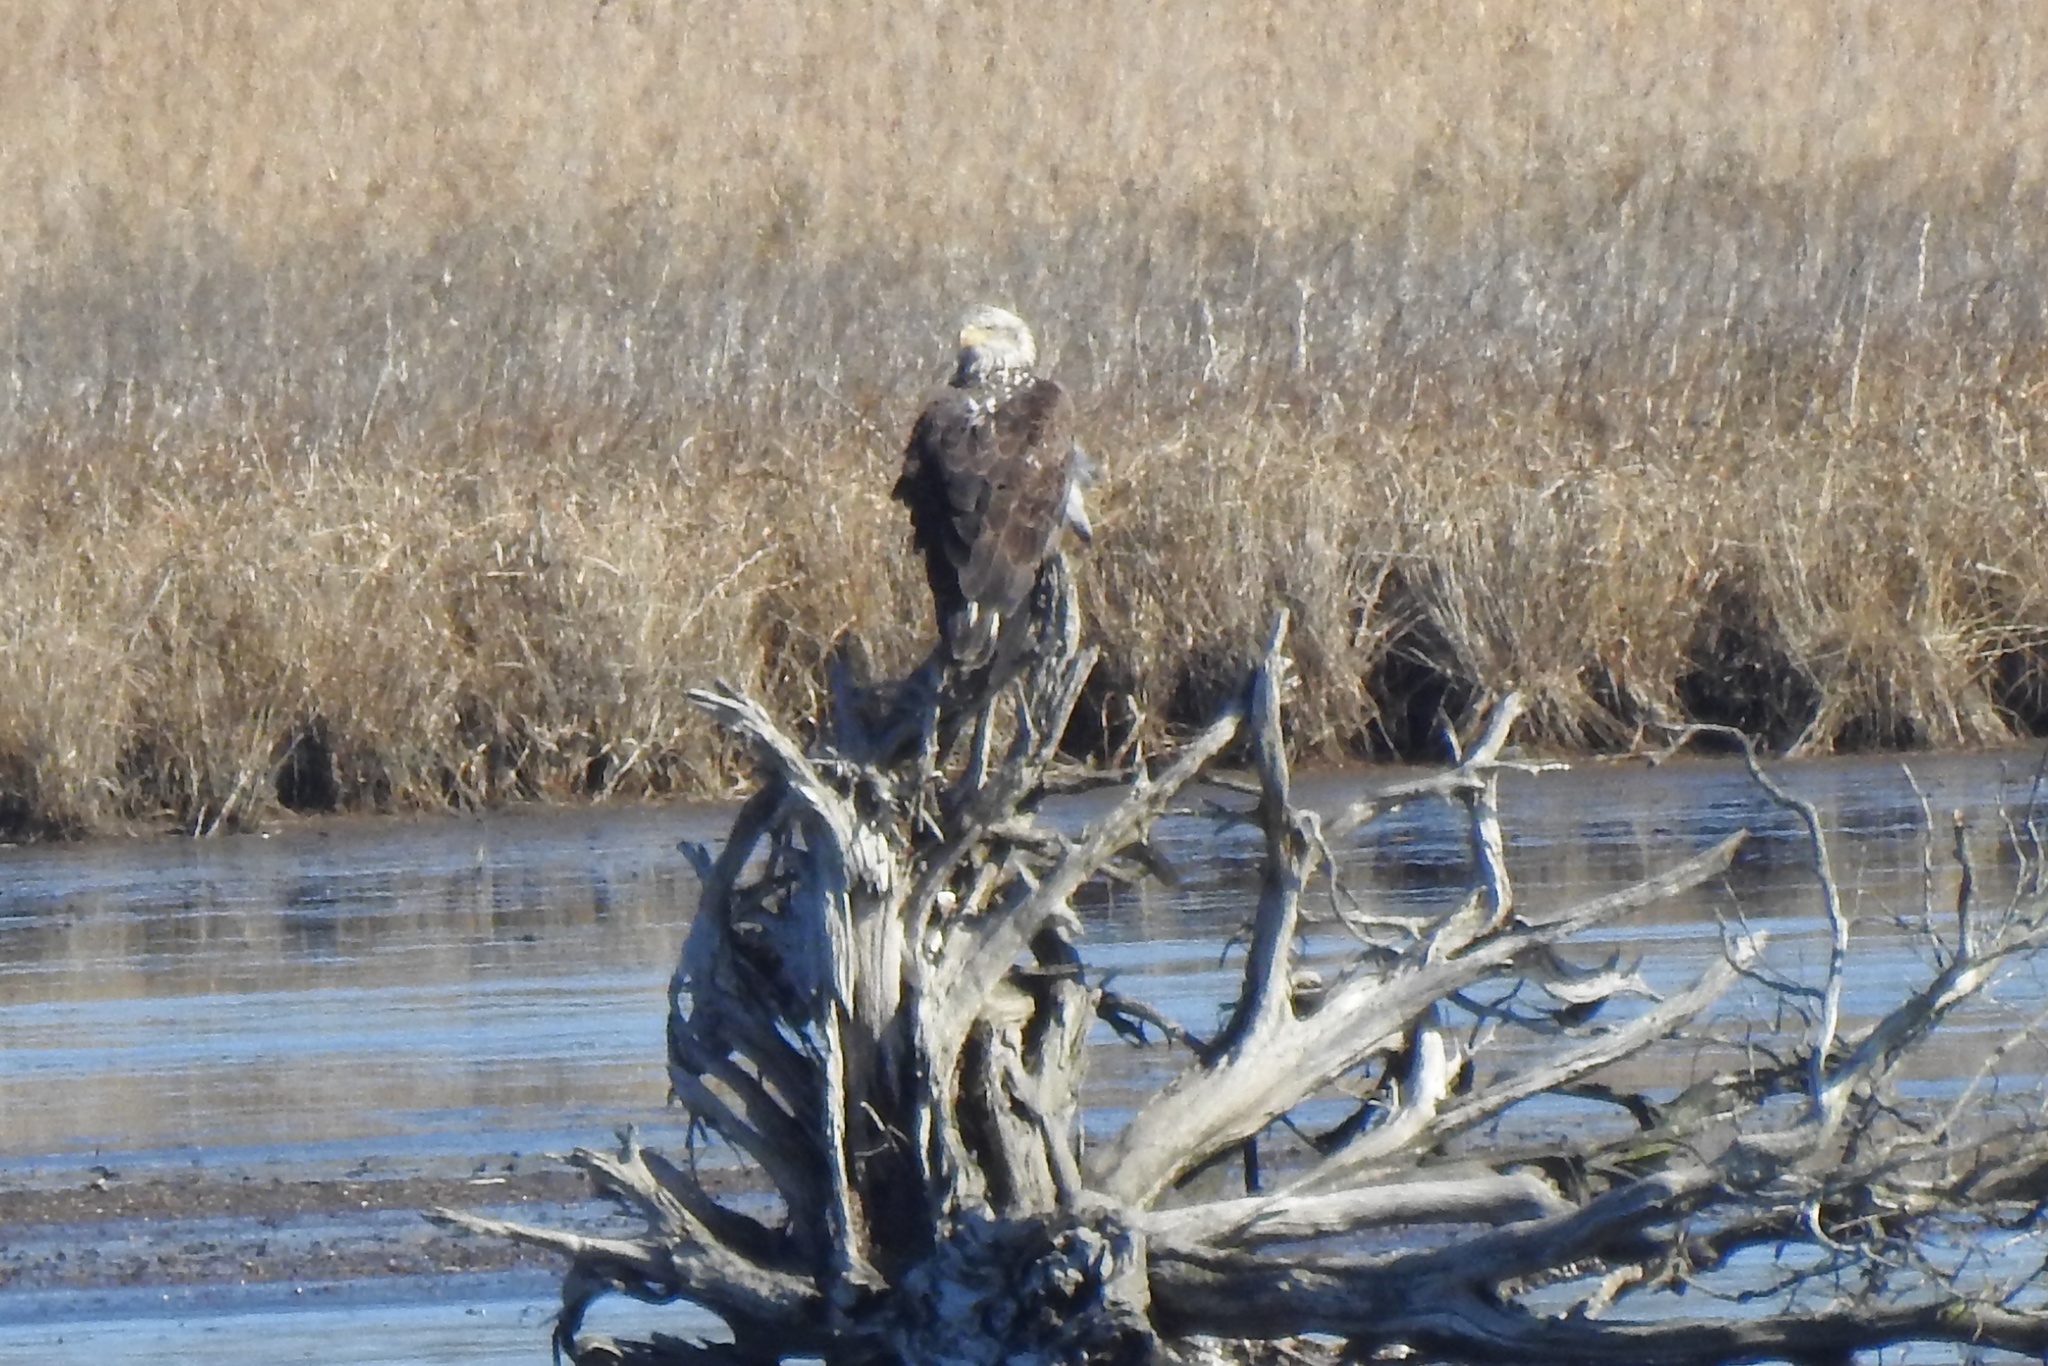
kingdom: Animalia
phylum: Chordata
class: Aves
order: Accipitriformes
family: Accipitridae
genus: Haliaeetus
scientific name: Haliaeetus leucocephalus
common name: Bald eagle
